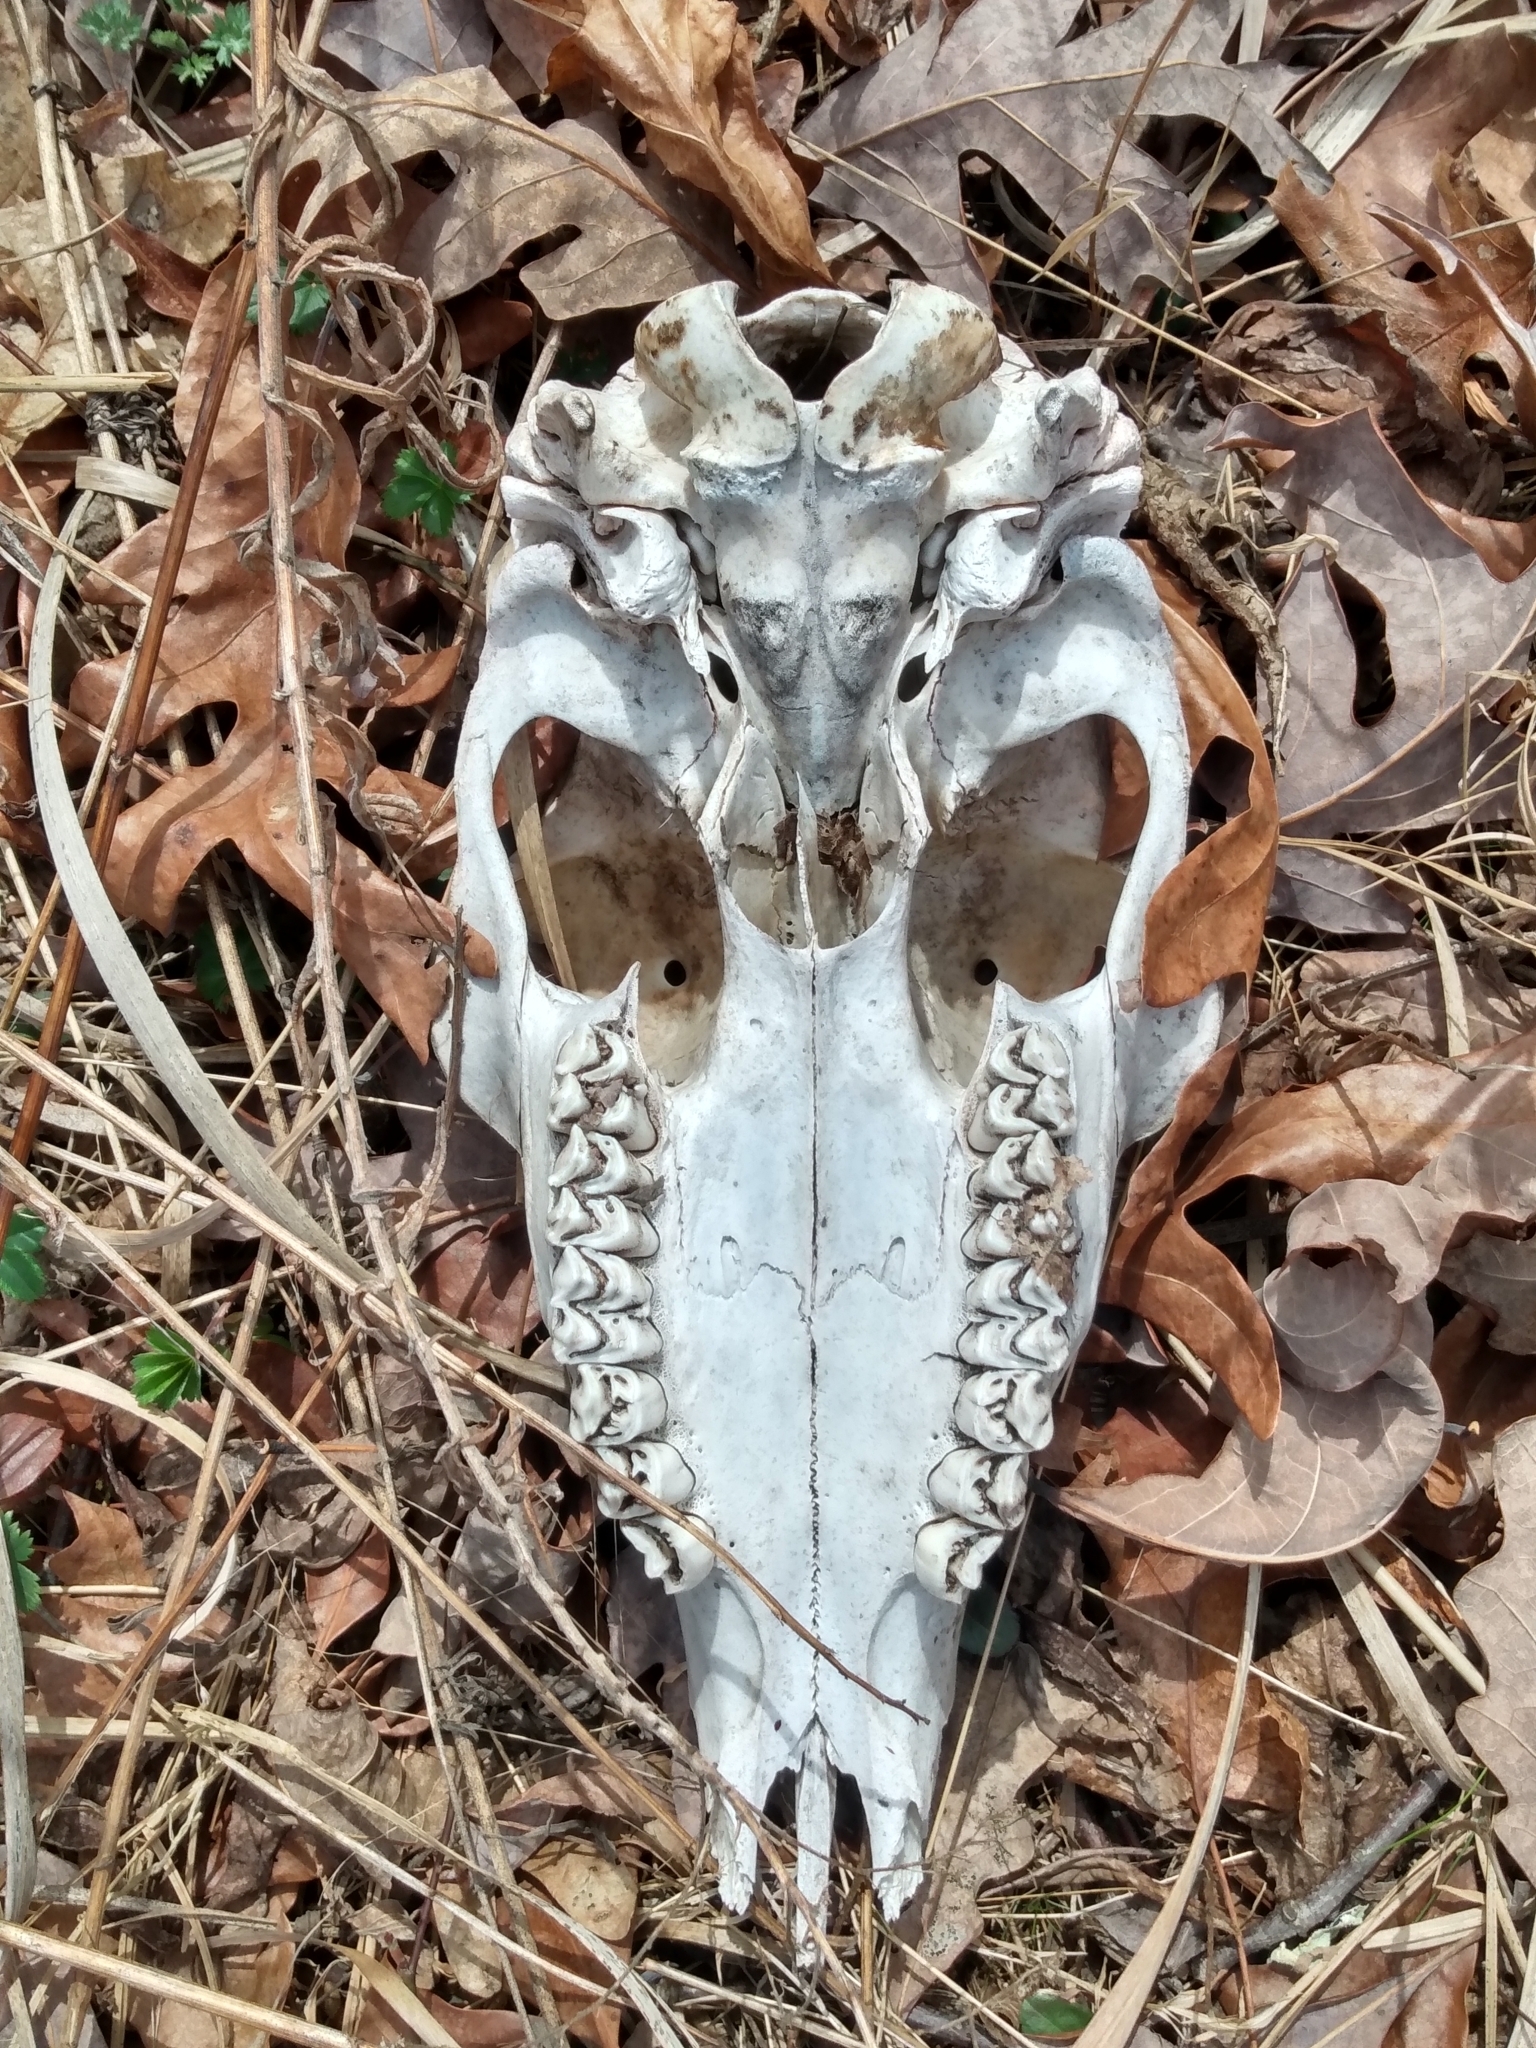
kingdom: Animalia
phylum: Chordata
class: Mammalia
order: Artiodactyla
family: Cervidae
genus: Odocoileus
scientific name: Odocoileus virginianus
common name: White-tailed deer
